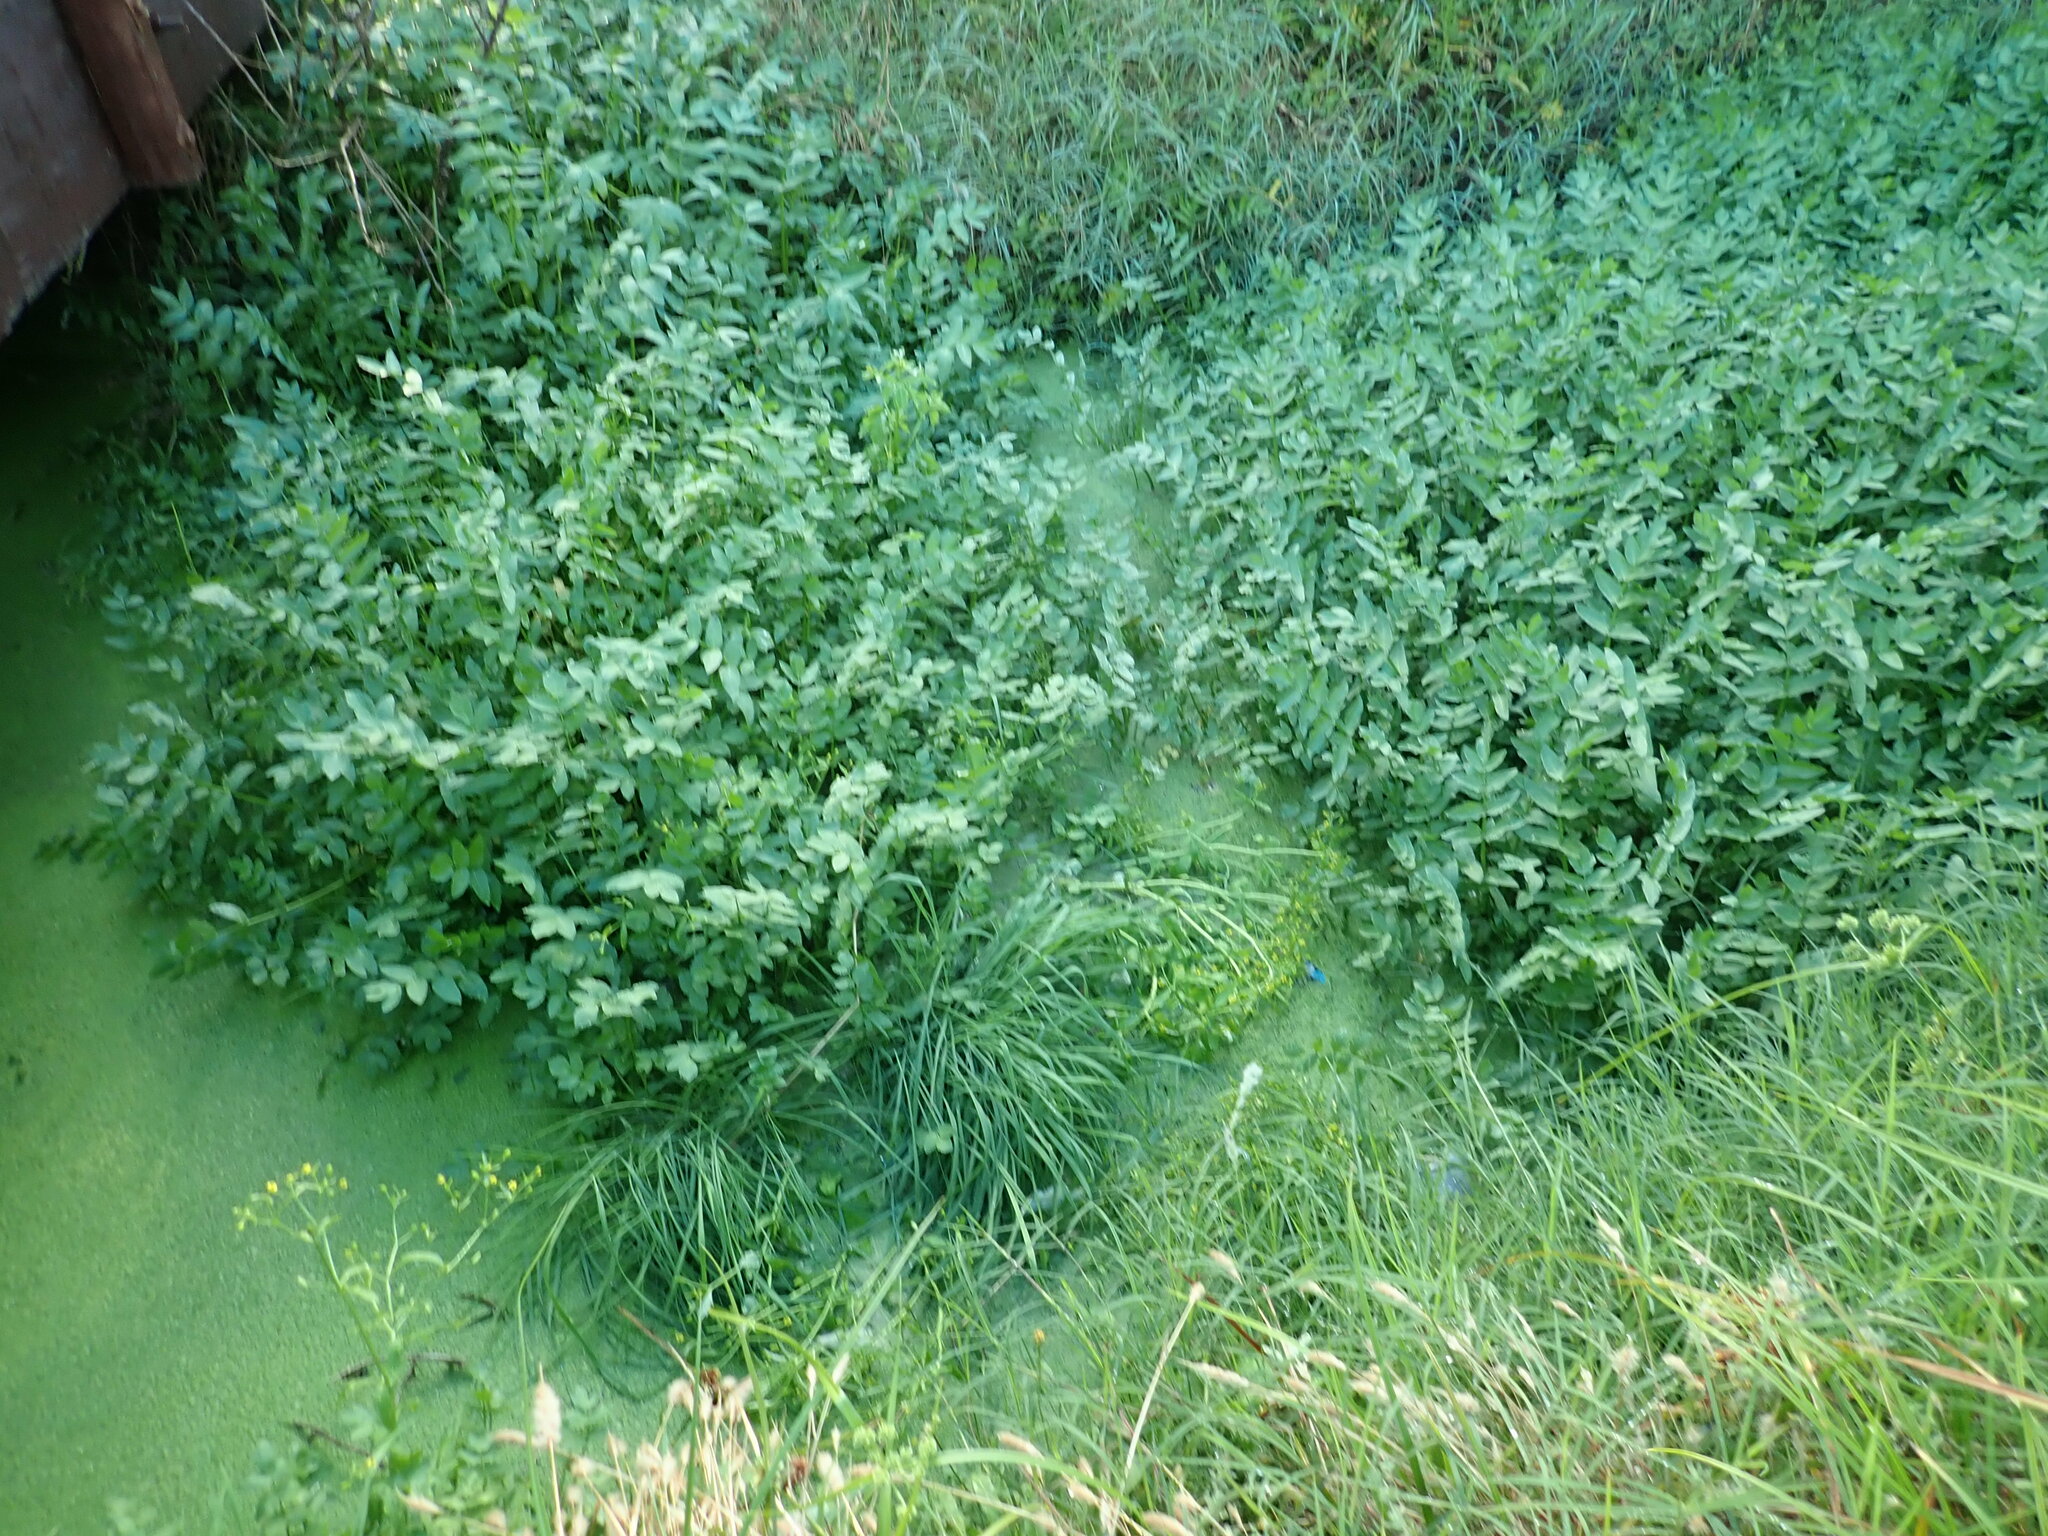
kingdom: Plantae
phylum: Tracheophyta
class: Magnoliopsida
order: Apiales
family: Apiaceae
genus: Helosciadium
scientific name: Helosciadium nodiflorum
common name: Fool's-watercress
